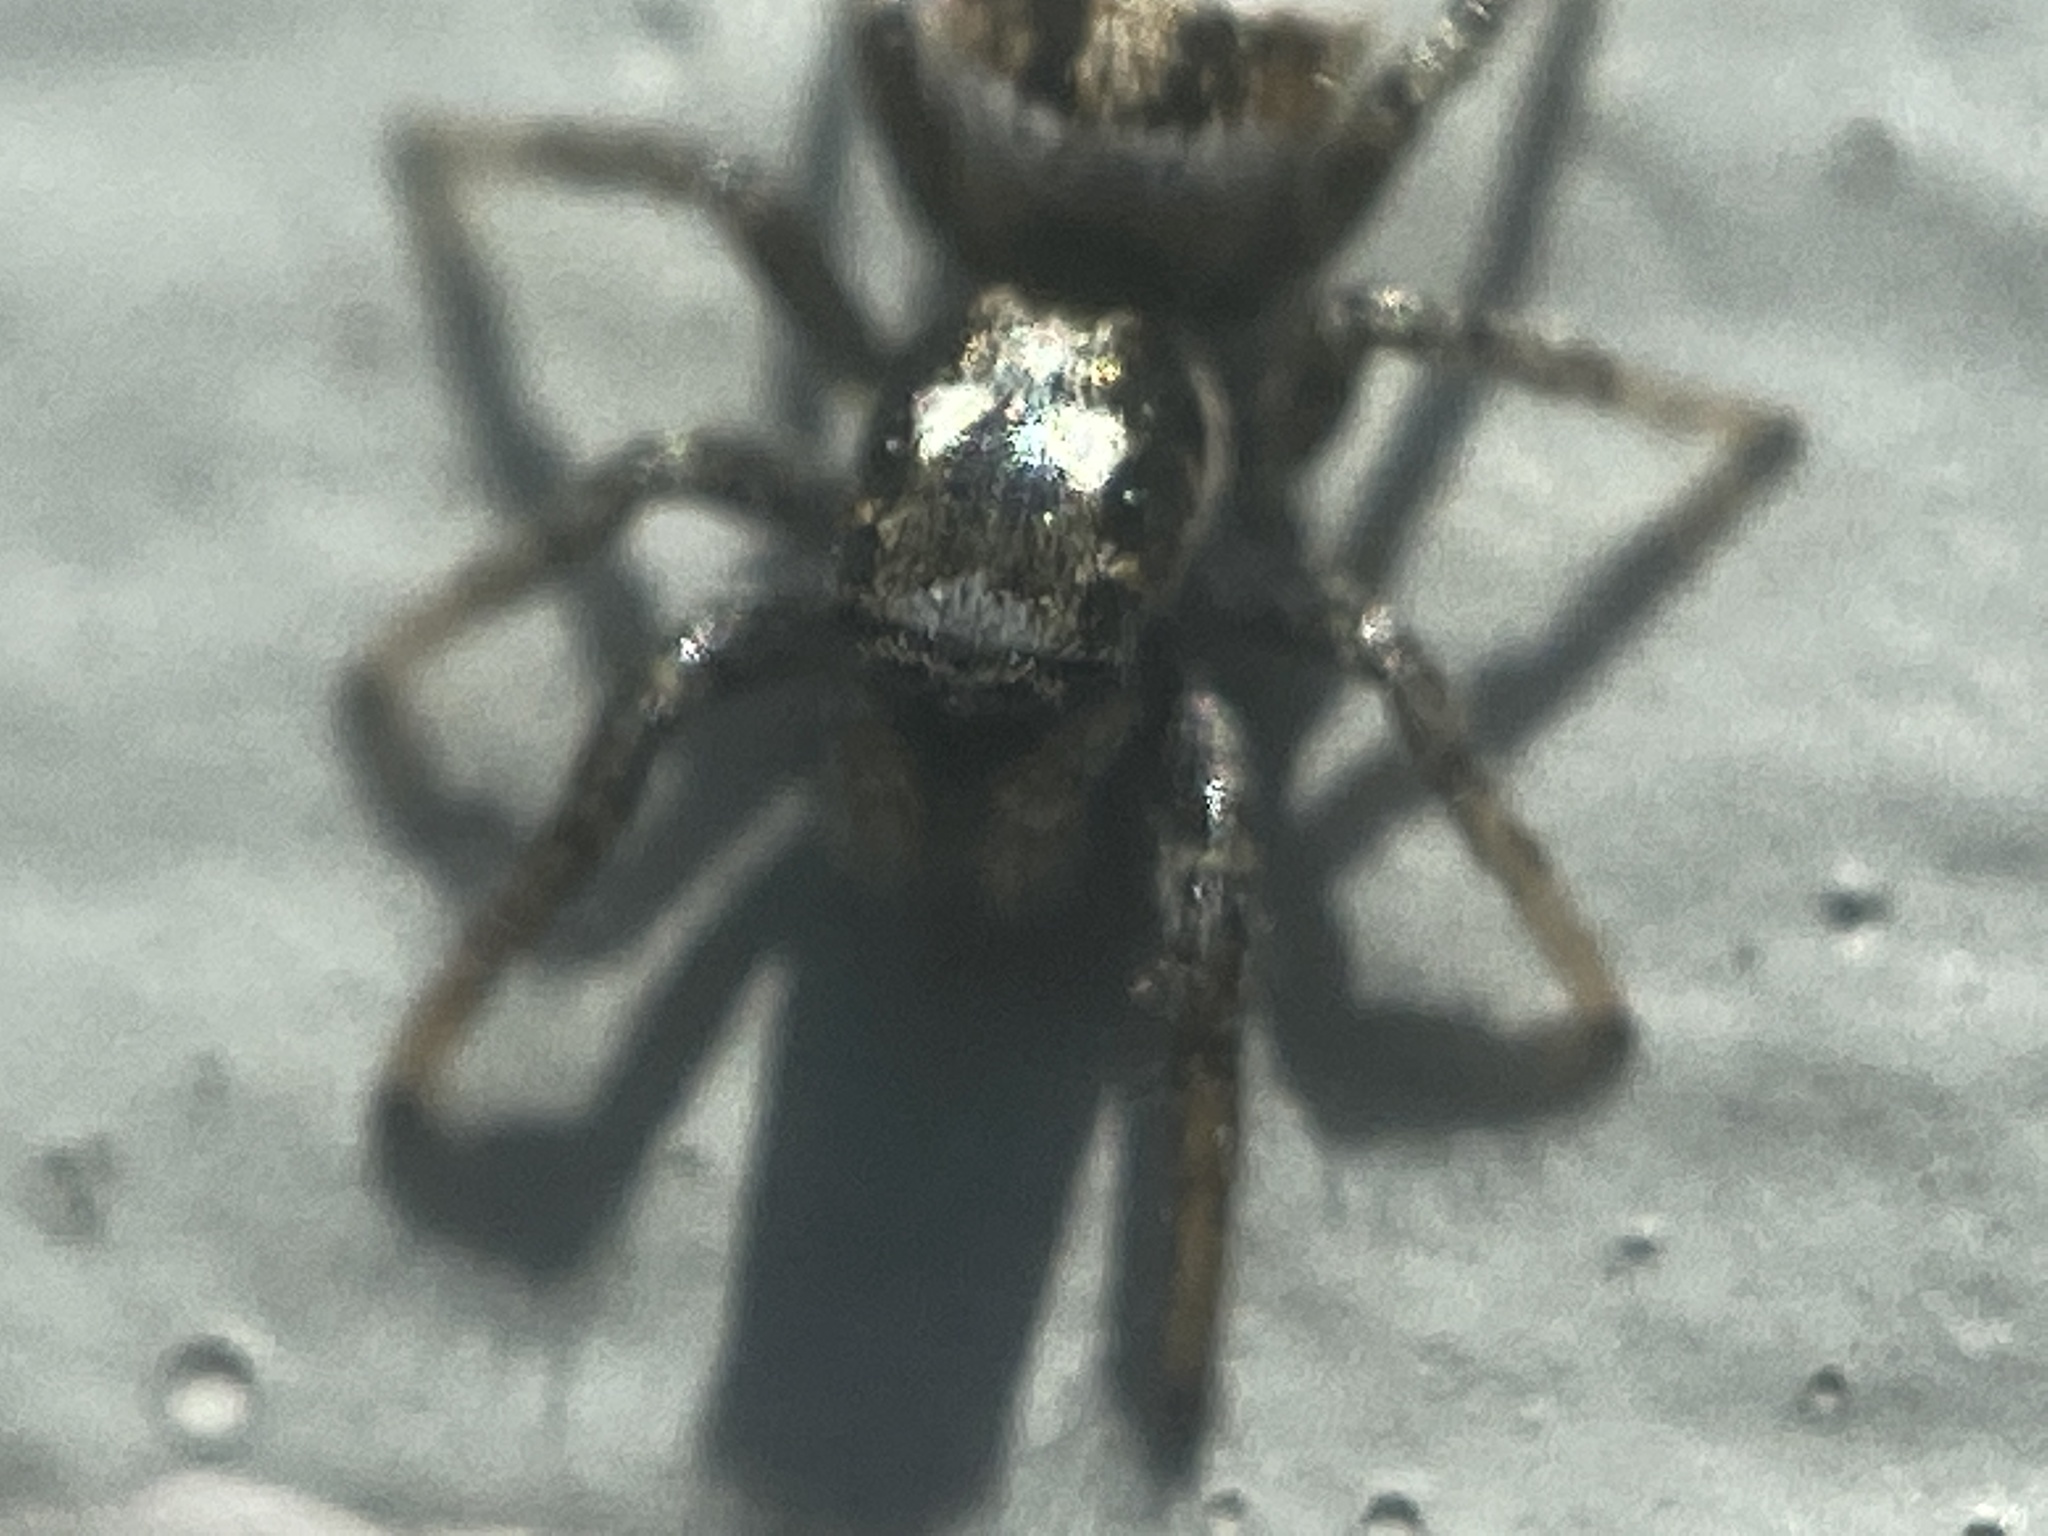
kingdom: Animalia
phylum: Arthropoda
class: Arachnida
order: Araneae
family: Salticidae
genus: Salticus
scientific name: Salticus scenicus
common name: Zebra jumper
